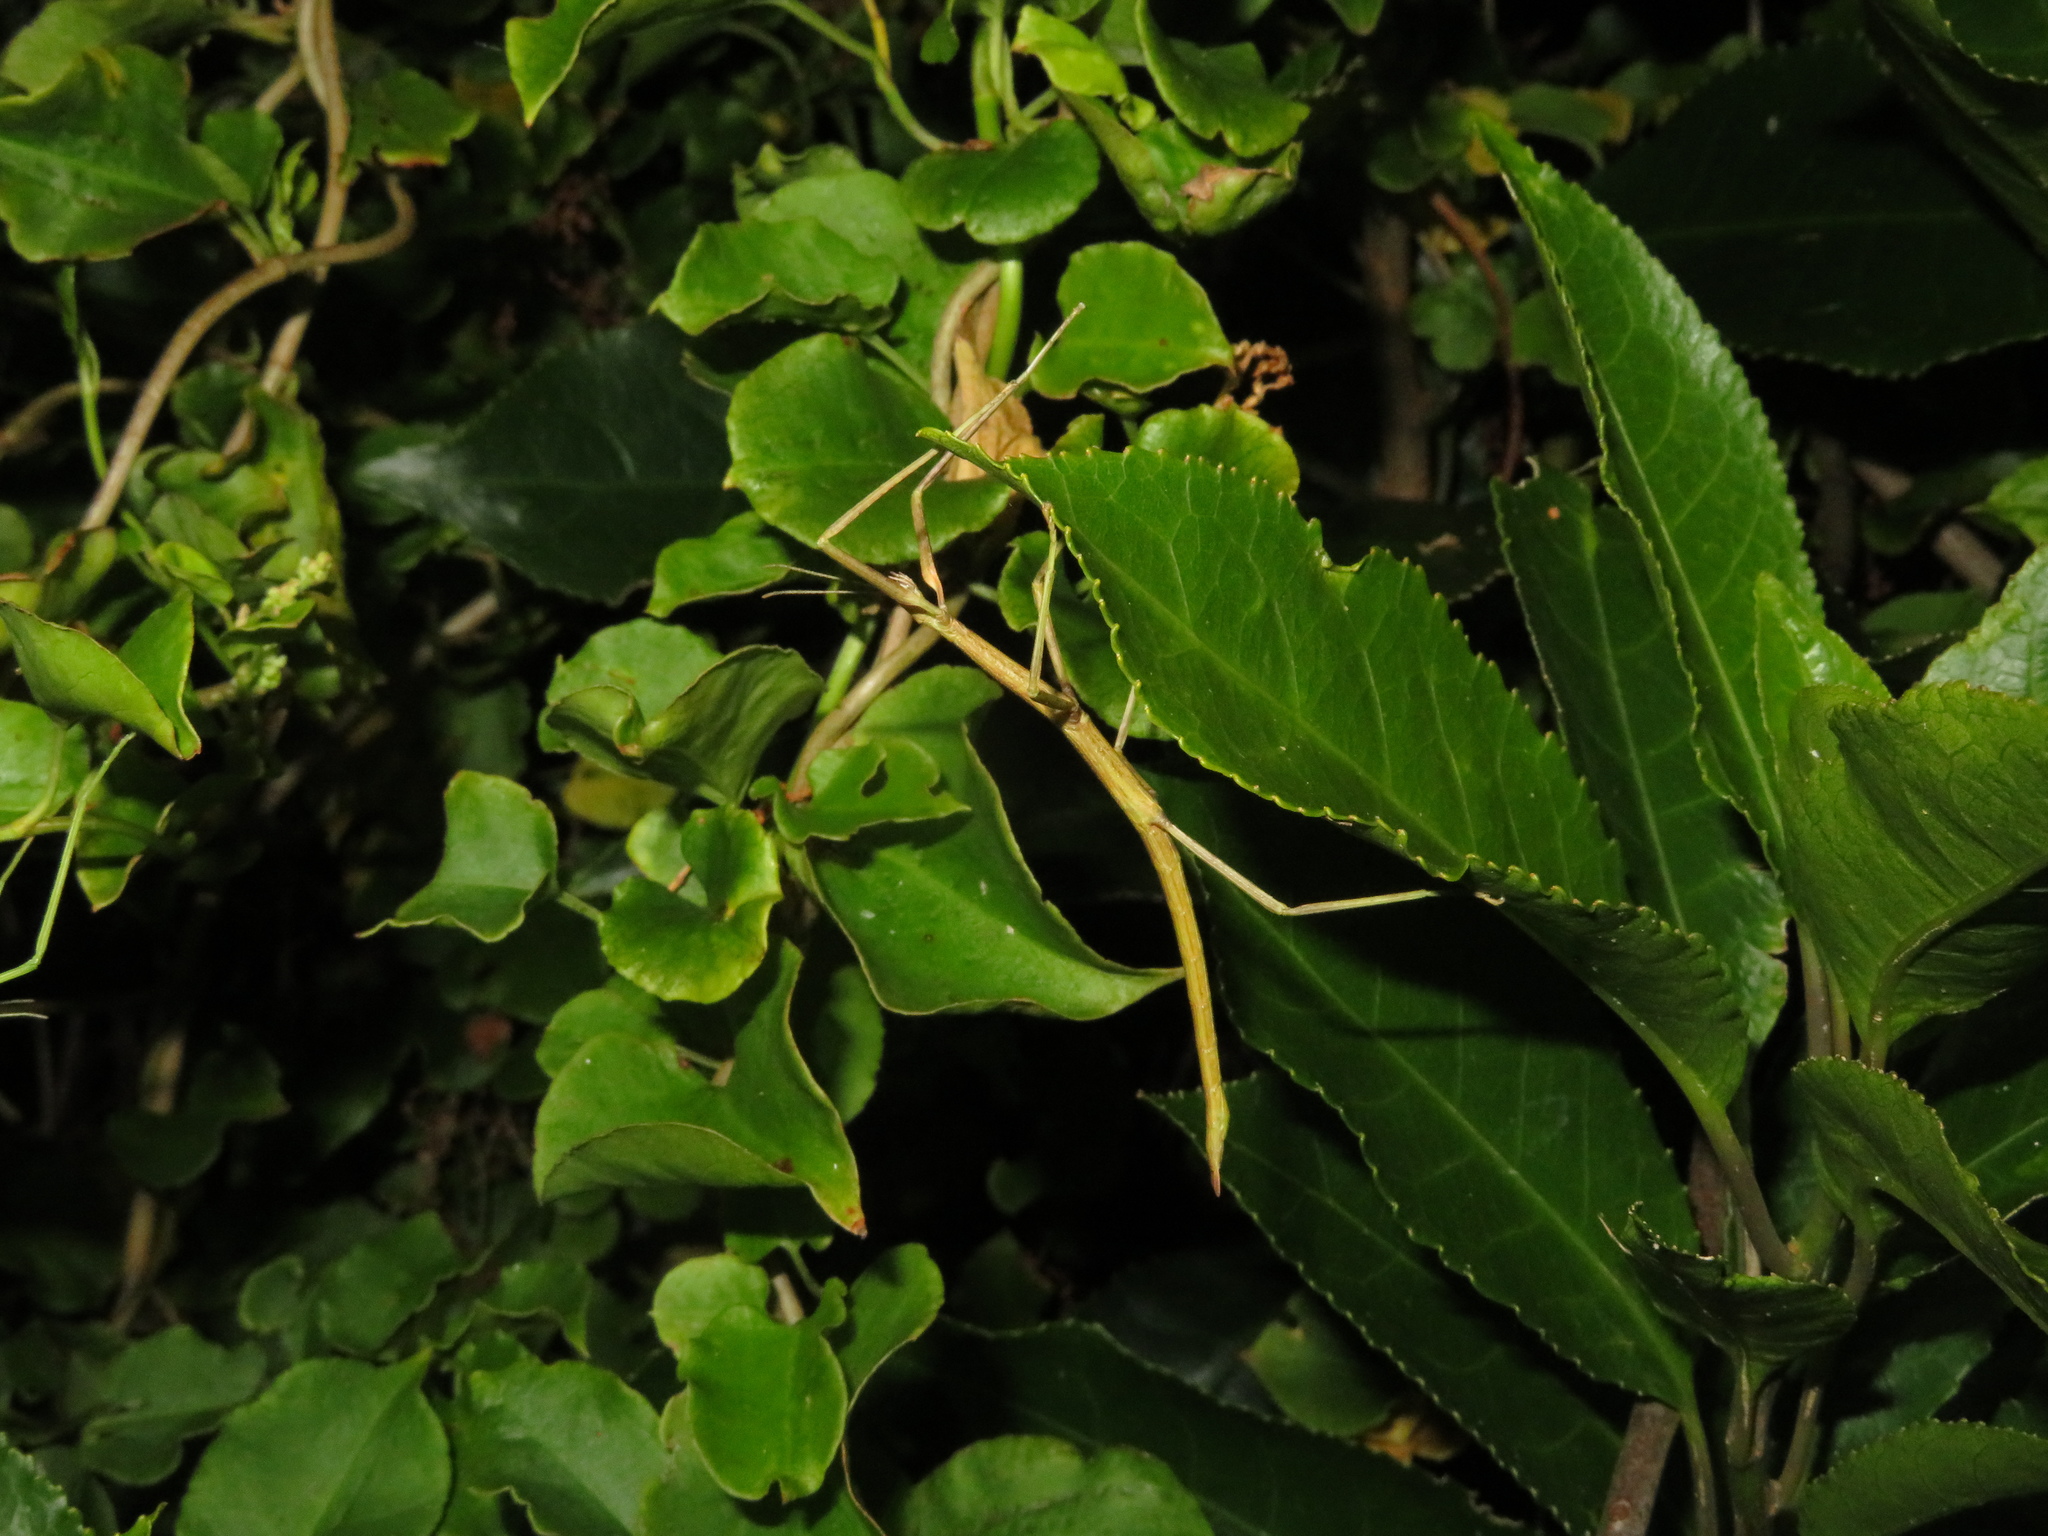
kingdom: Animalia
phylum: Arthropoda
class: Insecta
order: Phasmida
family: Phasmatidae
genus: Clitarchus
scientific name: Clitarchus hookeri
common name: Smooth stick insect
